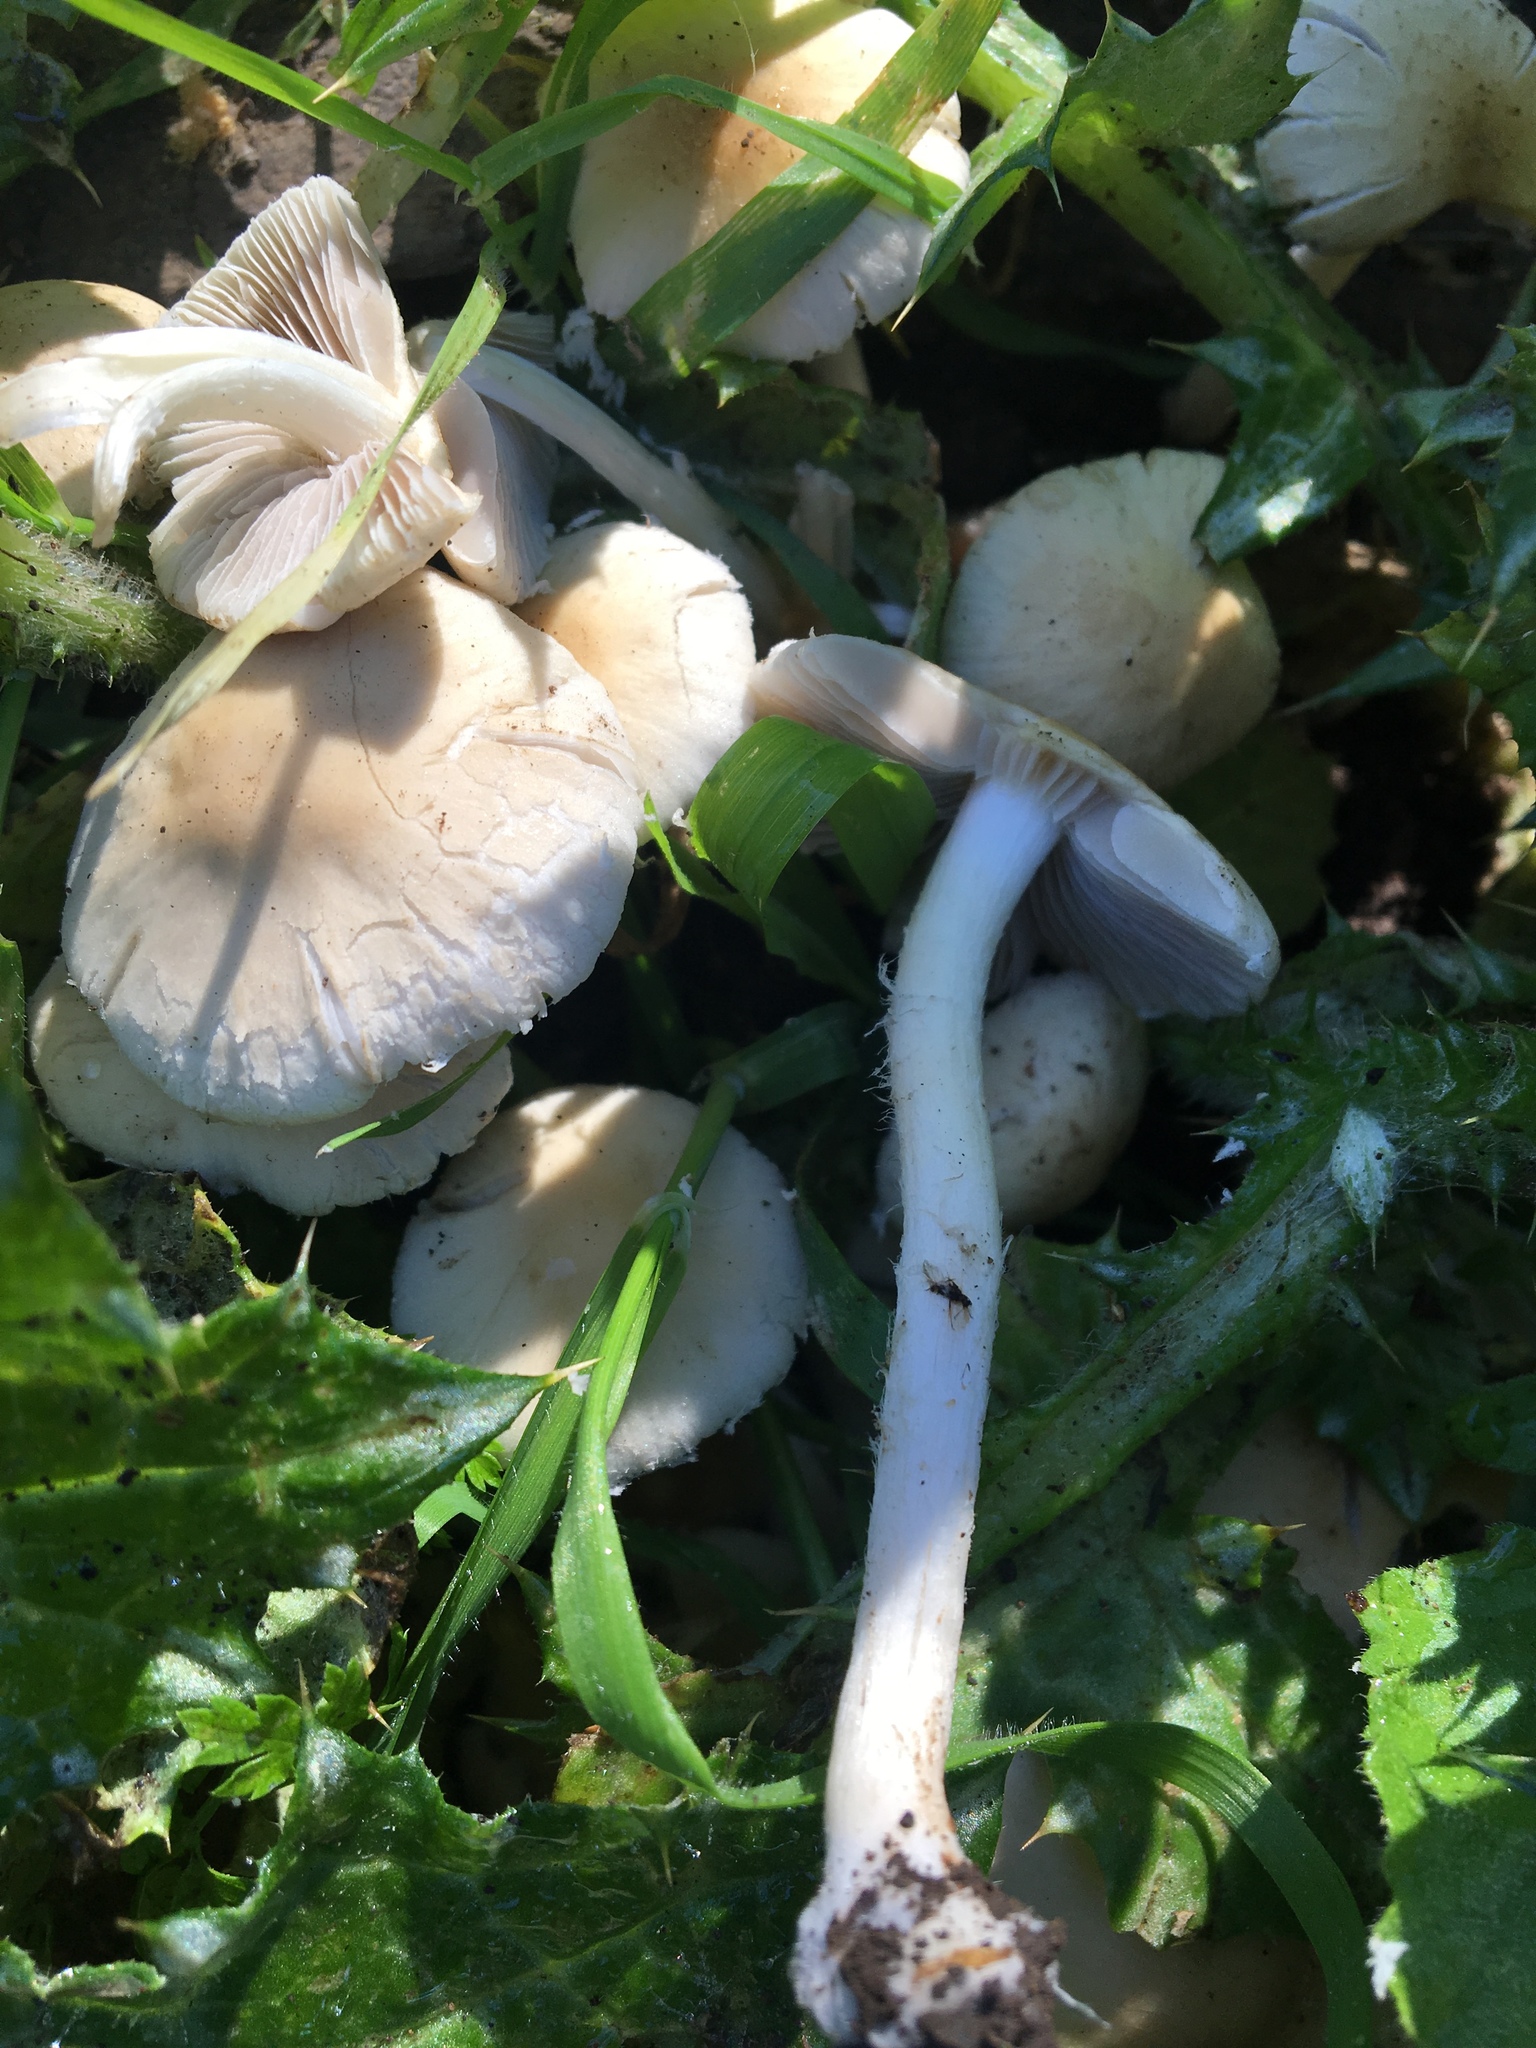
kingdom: Fungi
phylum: Basidiomycota
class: Agaricomycetes
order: Agaricales
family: Psathyrellaceae
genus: Candolleomyces
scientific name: Candolleomyces candolleanus
